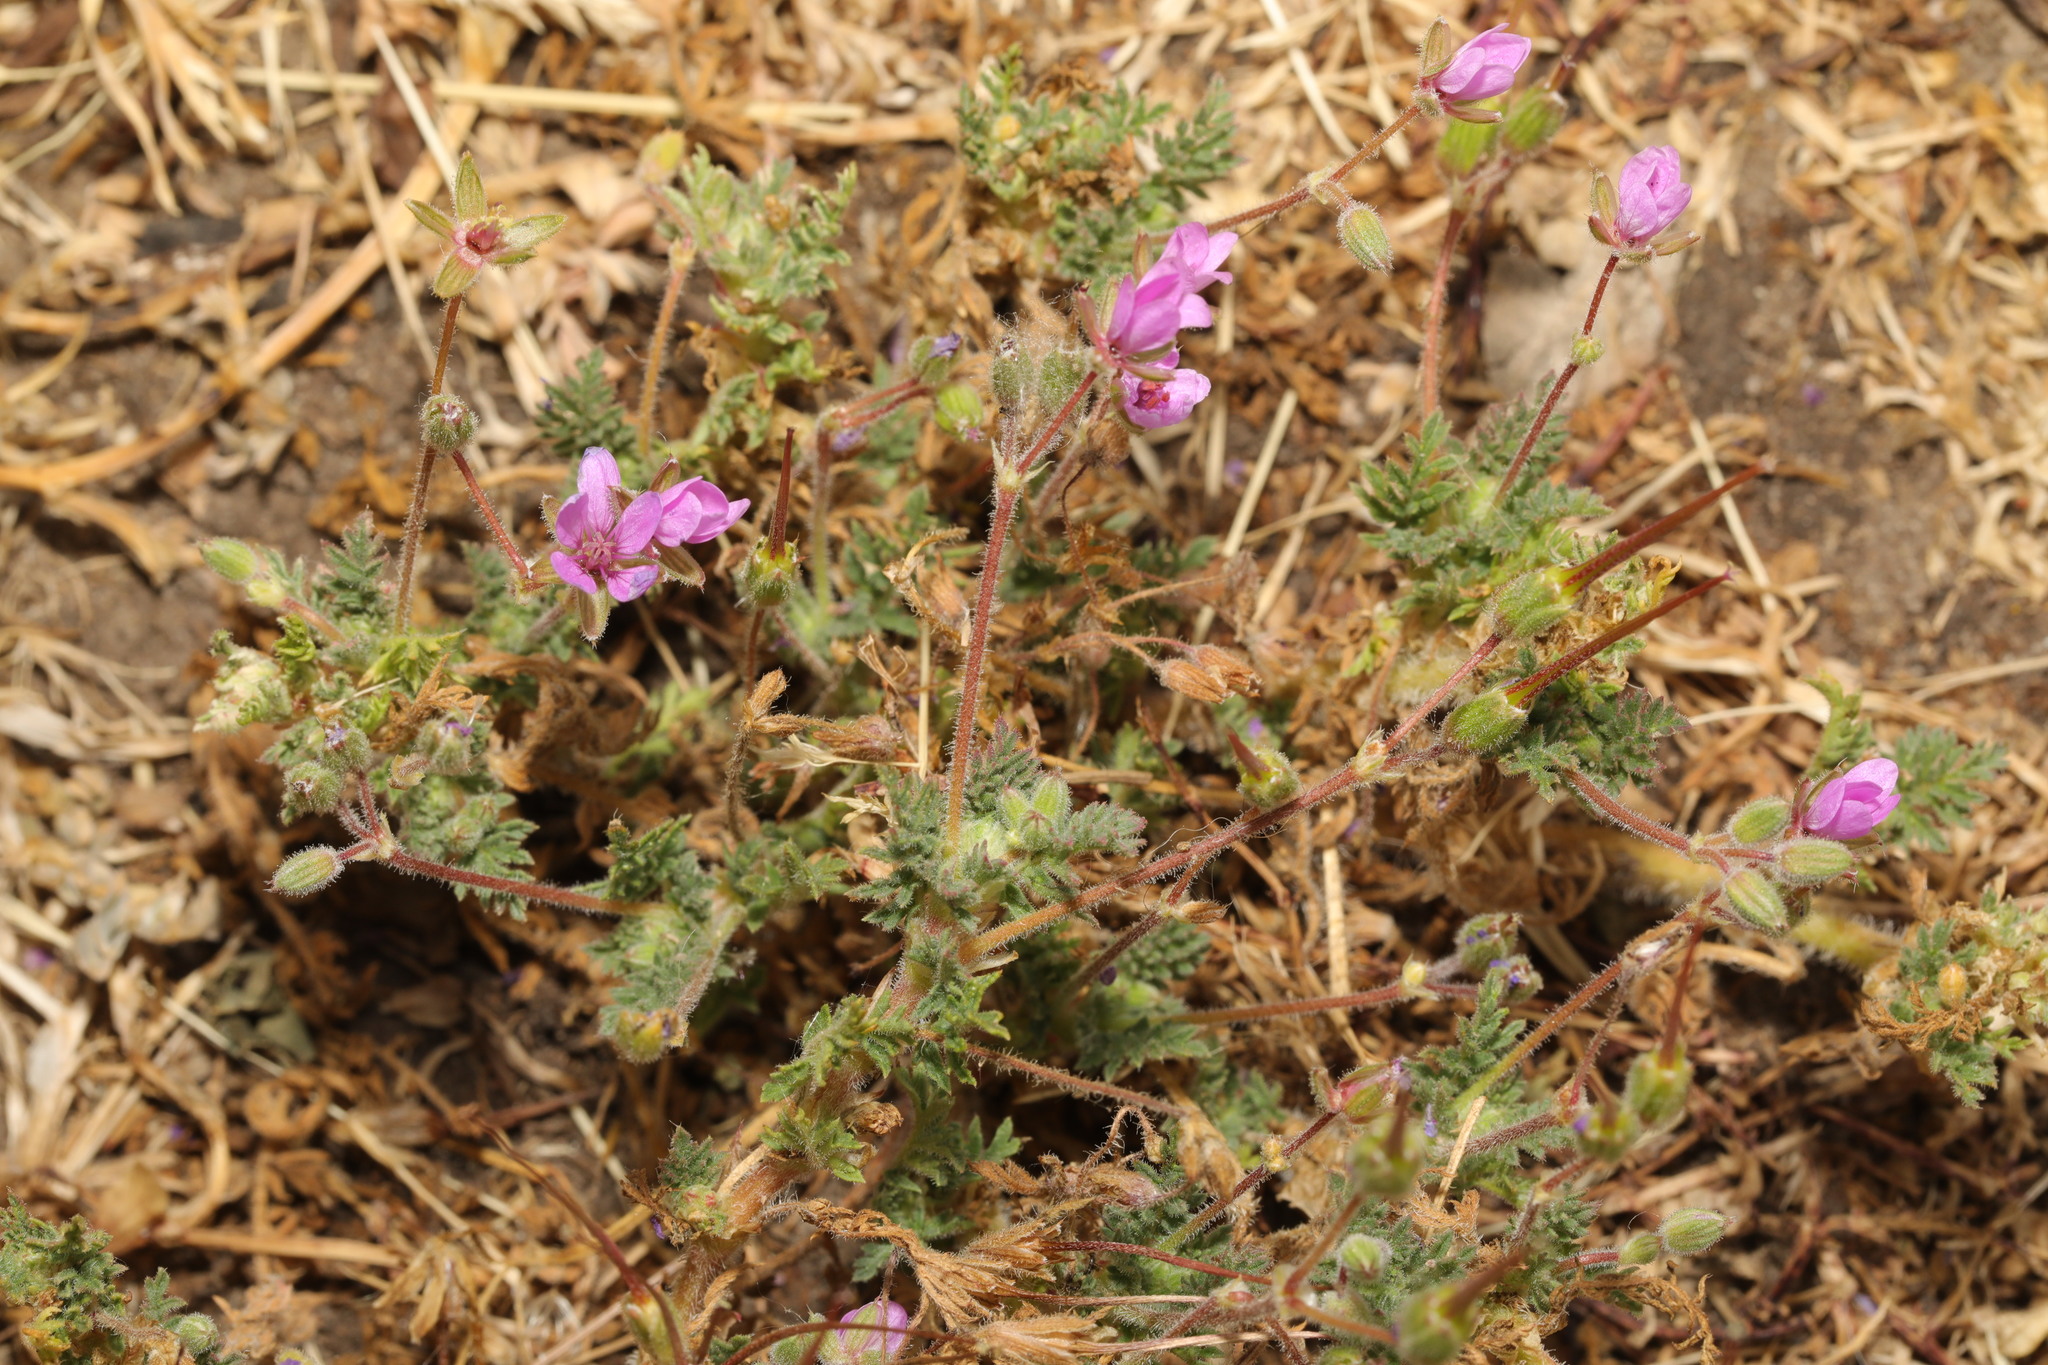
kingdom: Plantae
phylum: Tracheophyta
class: Magnoliopsida
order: Geraniales
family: Geraniaceae
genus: Erodium
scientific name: Erodium cicutarium
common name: Common stork's-bill
